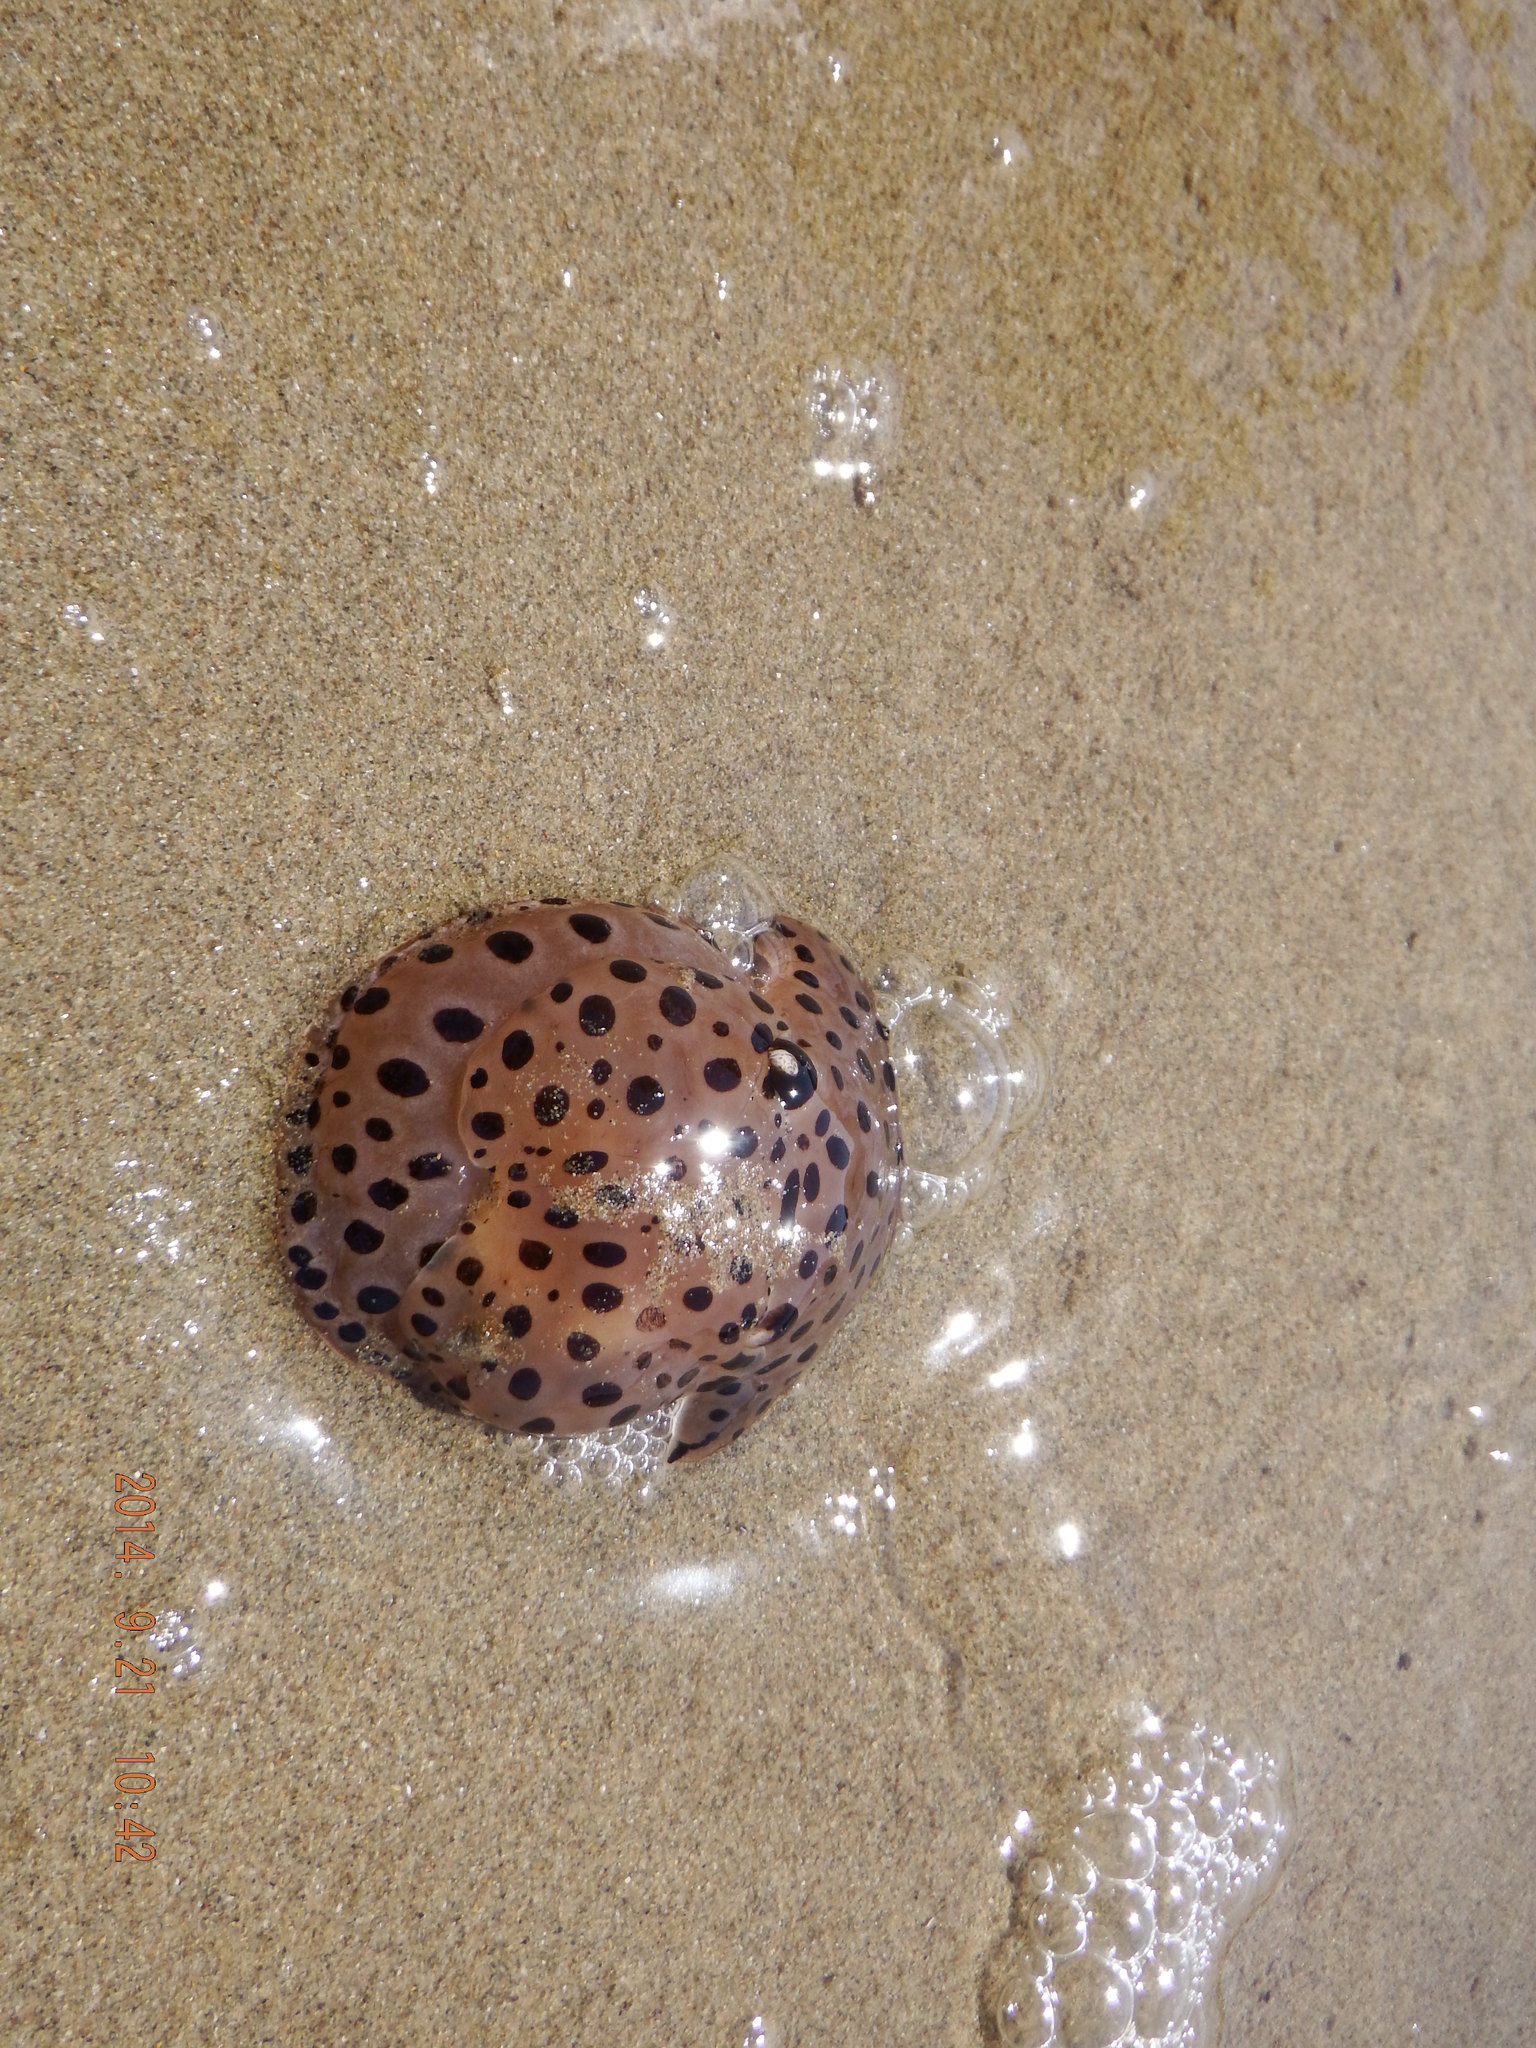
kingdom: Animalia
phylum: Mollusca
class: Gastropoda
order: Pleurobranchida
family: Pleurobranchaeidae
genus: Euselenops
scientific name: Euselenops luniceps
